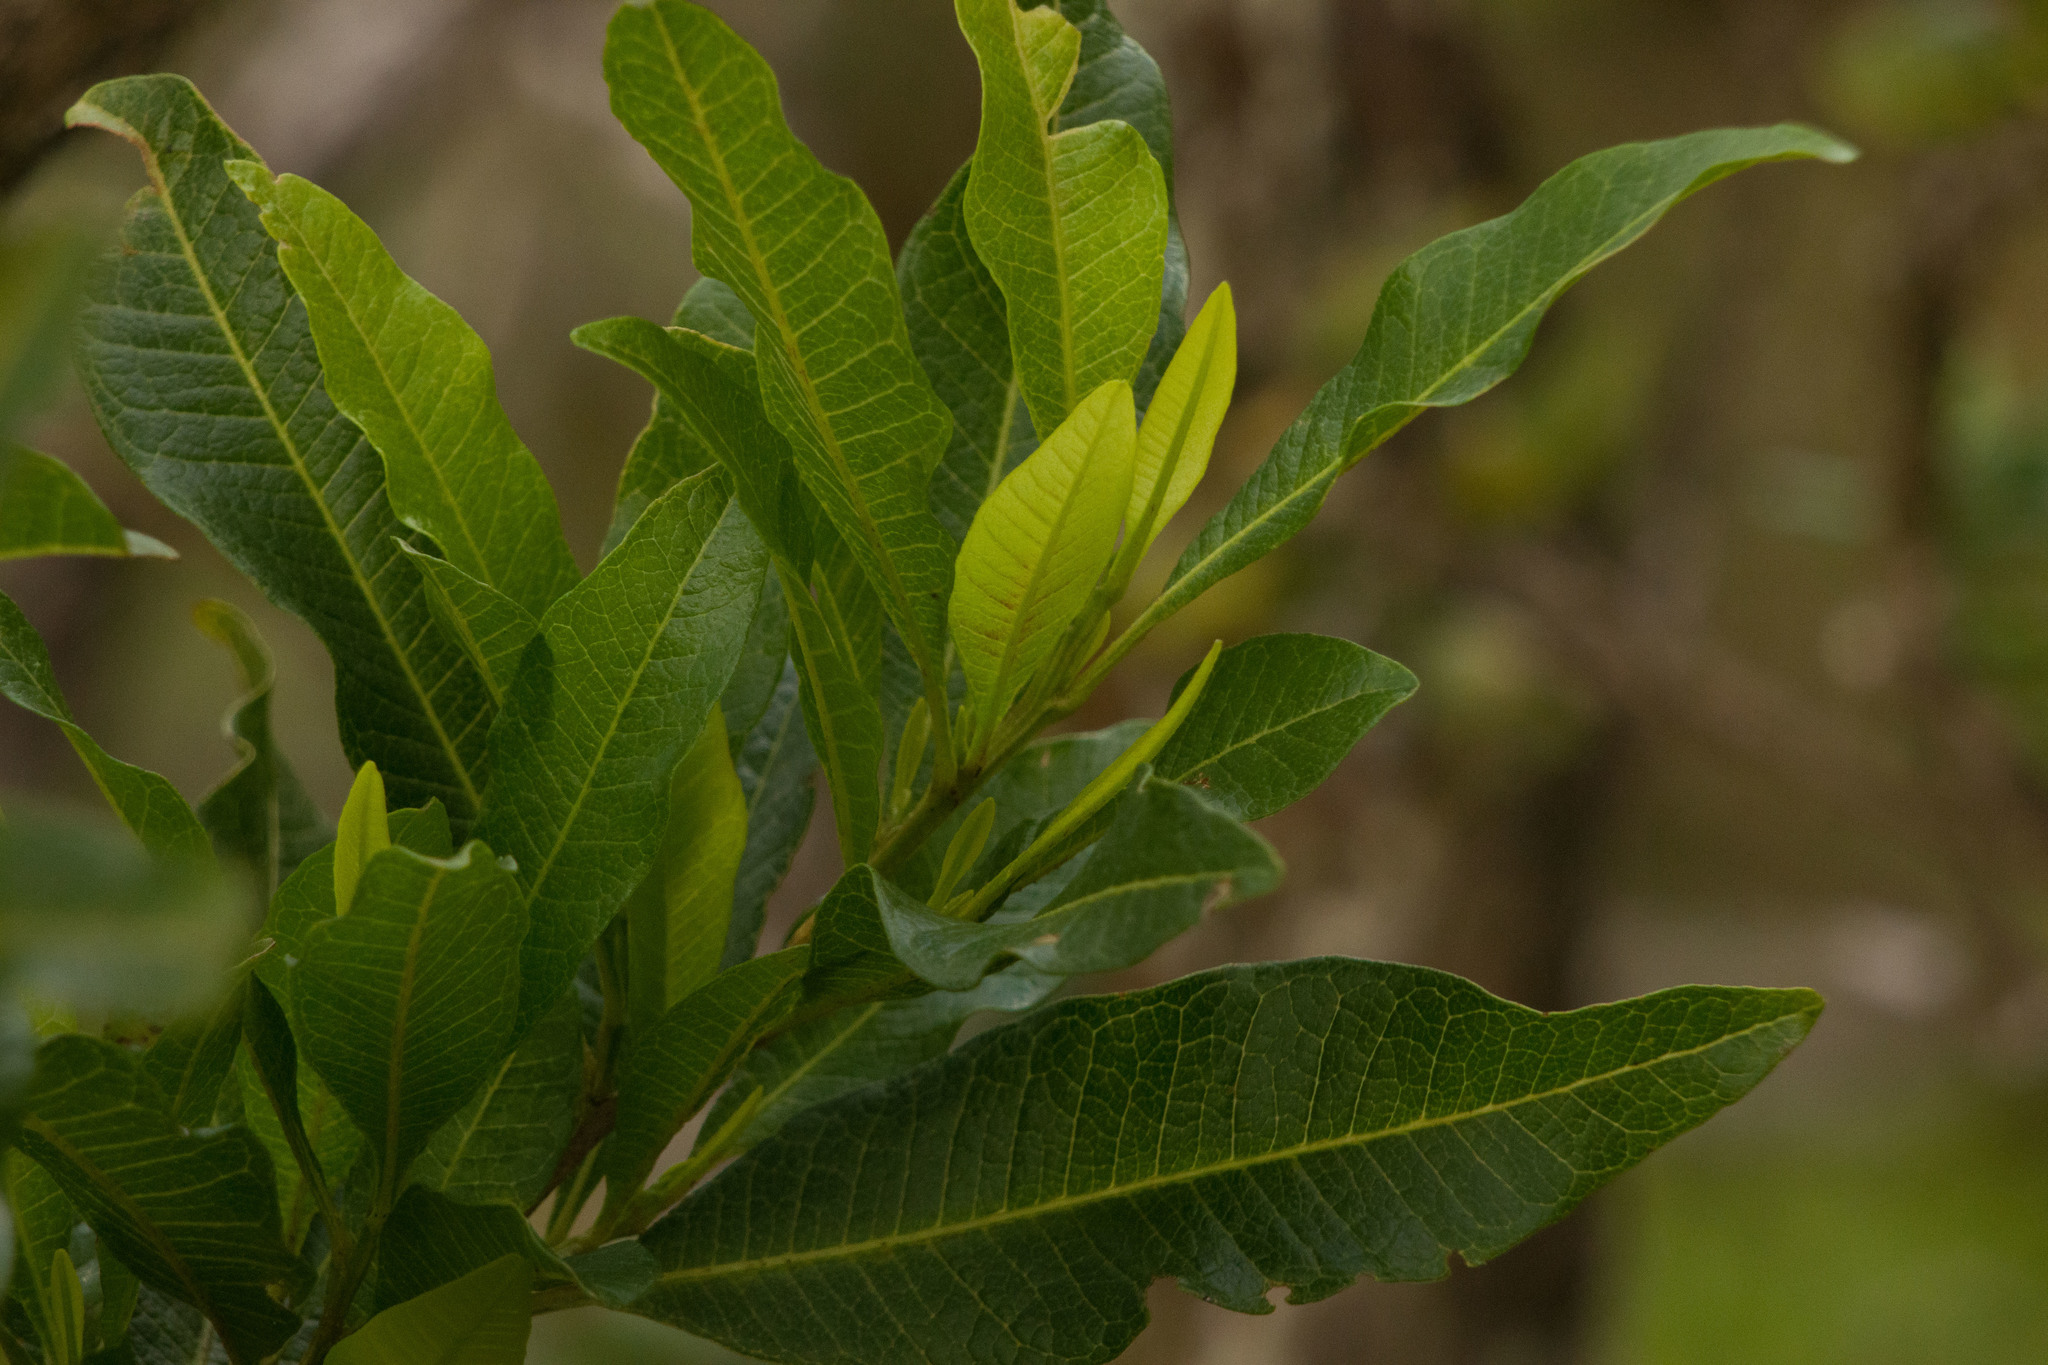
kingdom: Plantae
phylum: Tracheophyta
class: Magnoliopsida
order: Sapindales
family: Sapindaceae
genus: Dodonaea
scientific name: Dodonaea viscosa
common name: Hopbush
